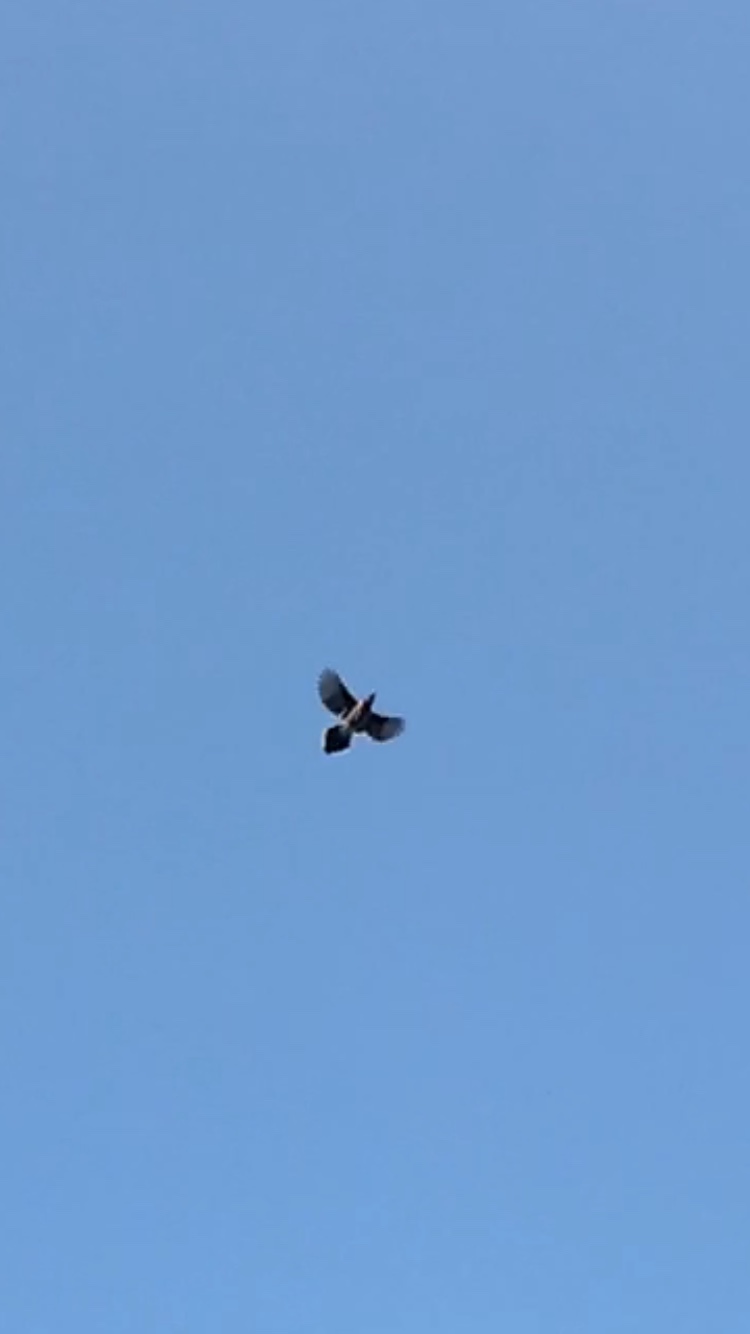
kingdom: Animalia
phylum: Chordata
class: Aves
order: Passeriformes
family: Corvidae
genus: Cyanocitta
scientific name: Cyanocitta cristata
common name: Blue jay
